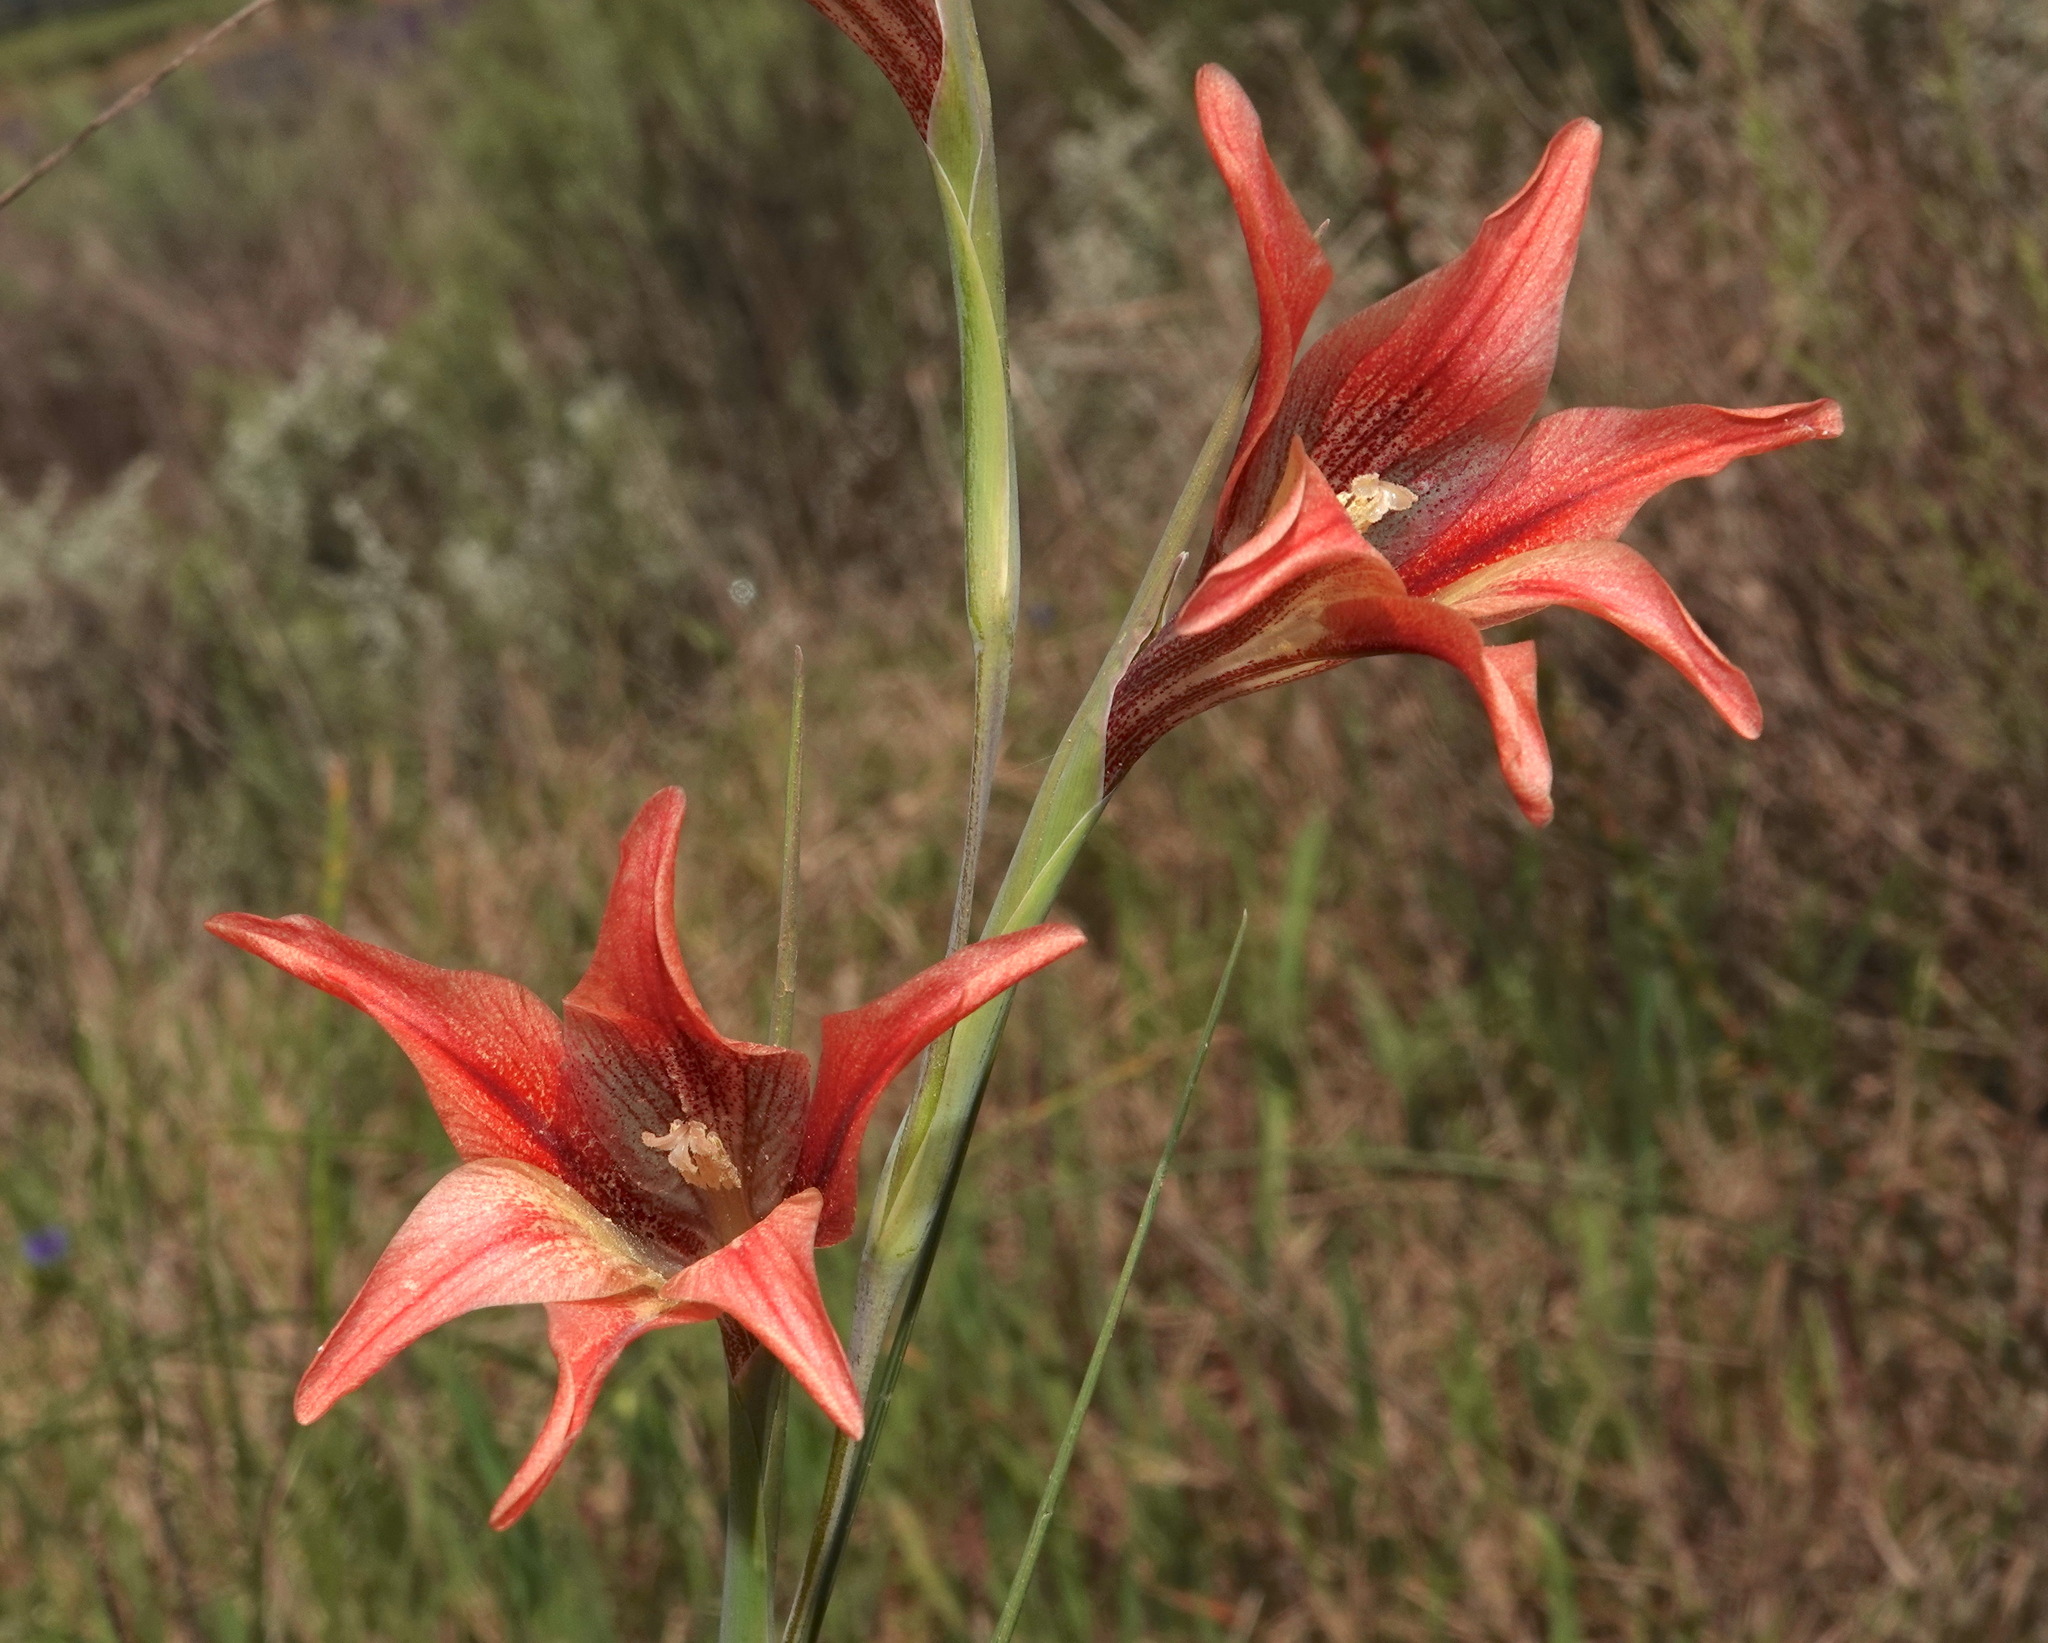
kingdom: Plantae
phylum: Tracheophyta
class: Liliopsida
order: Asparagales
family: Iridaceae
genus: Gladiolus
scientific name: Gladiolus liliaceus
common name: Large brown afrikaner
